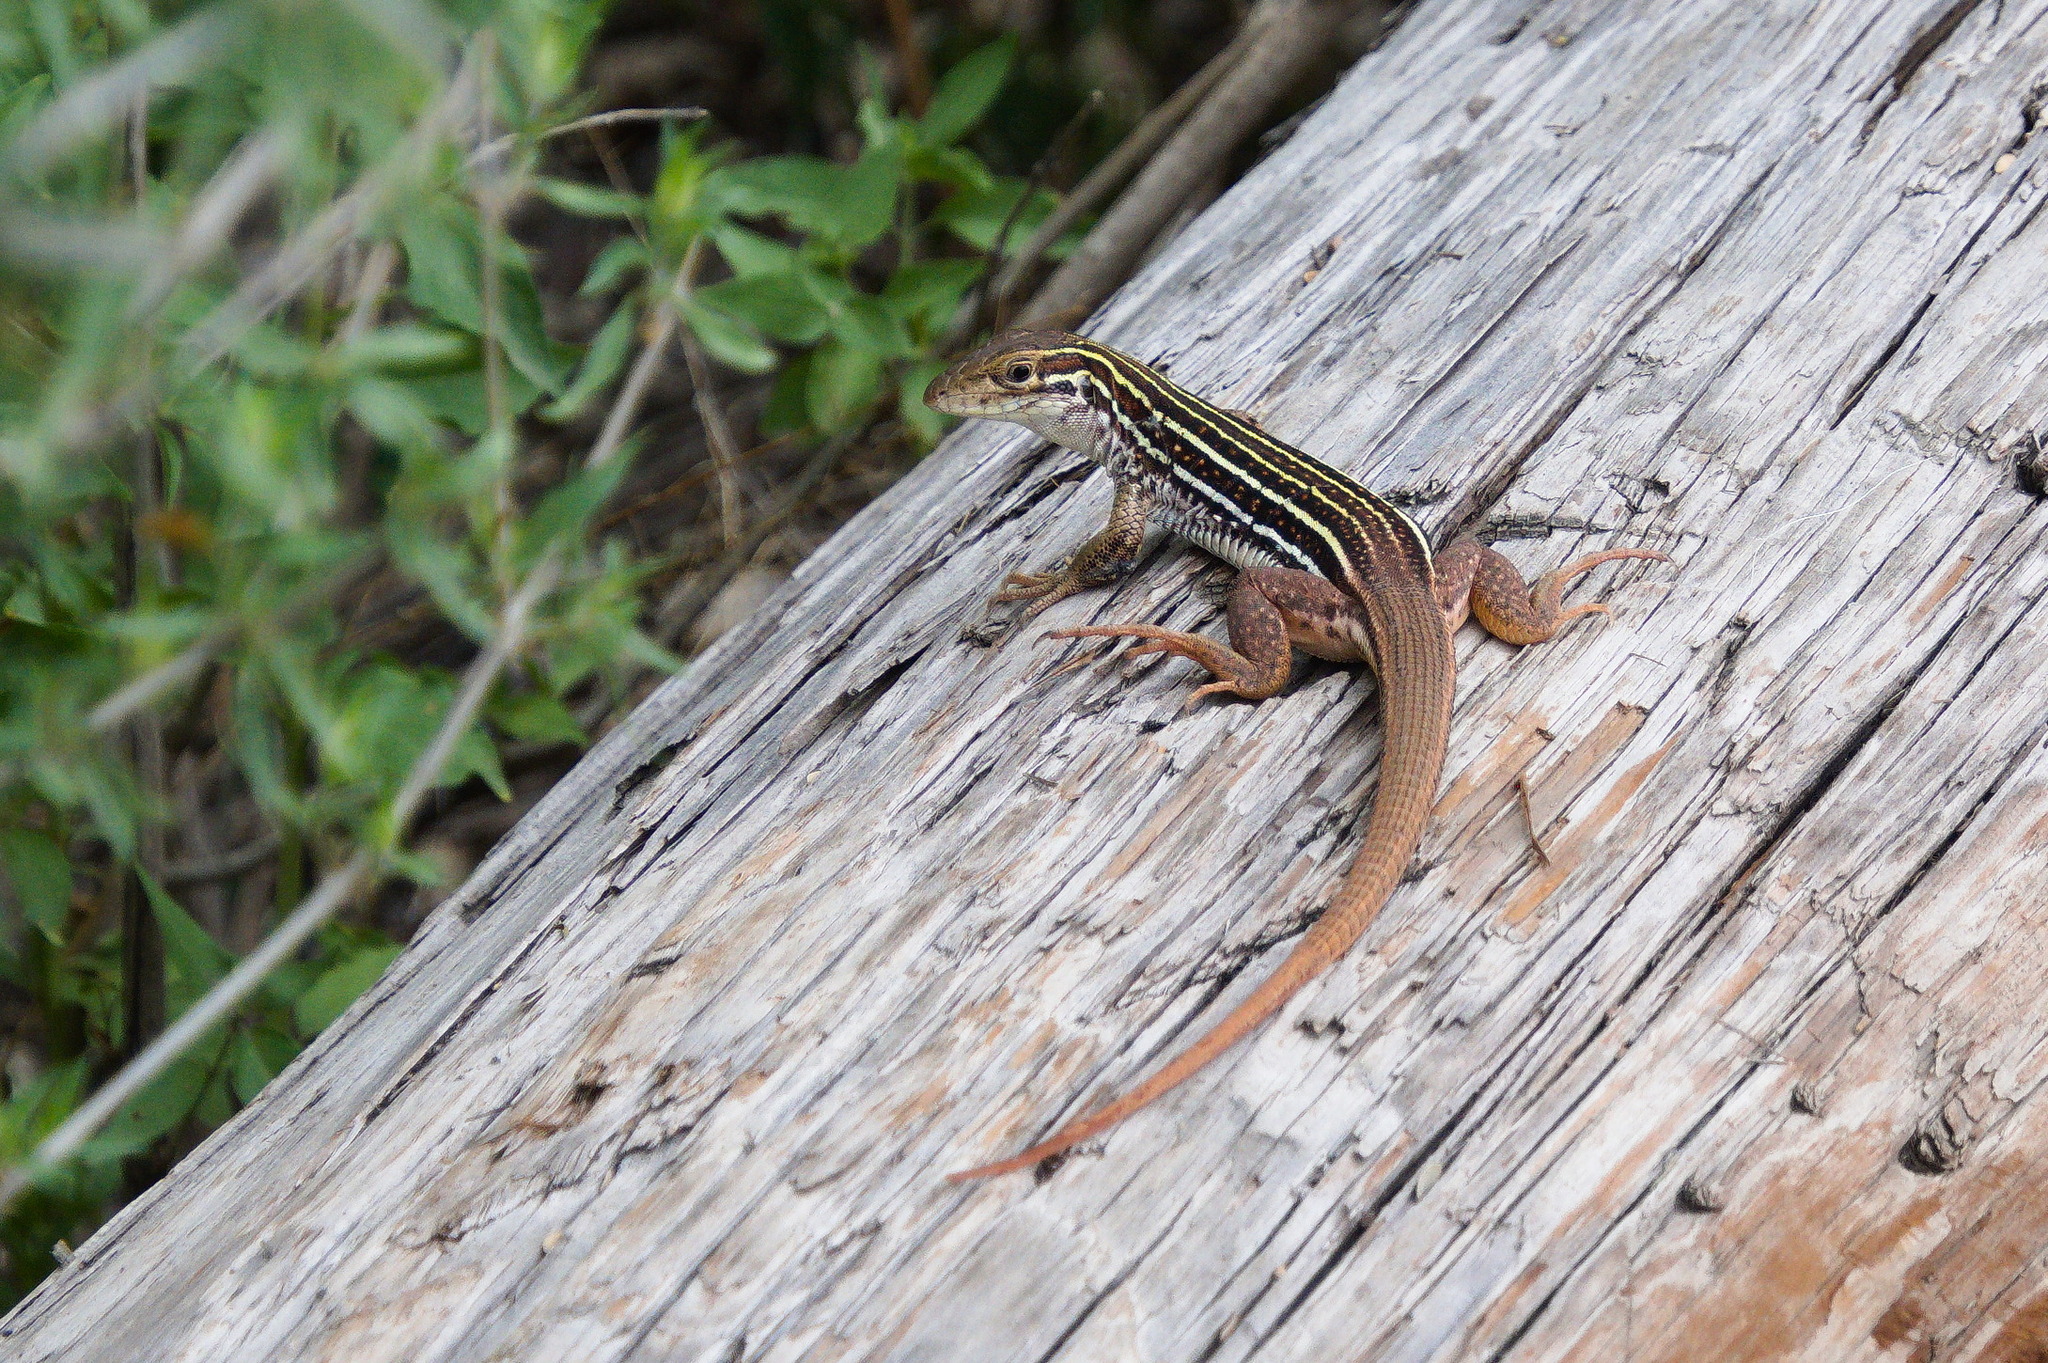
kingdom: Animalia
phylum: Chordata
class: Squamata
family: Teiidae
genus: Aspidoscelis
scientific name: Aspidoscelis stictogrammus
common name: Giant spotted whiptail
